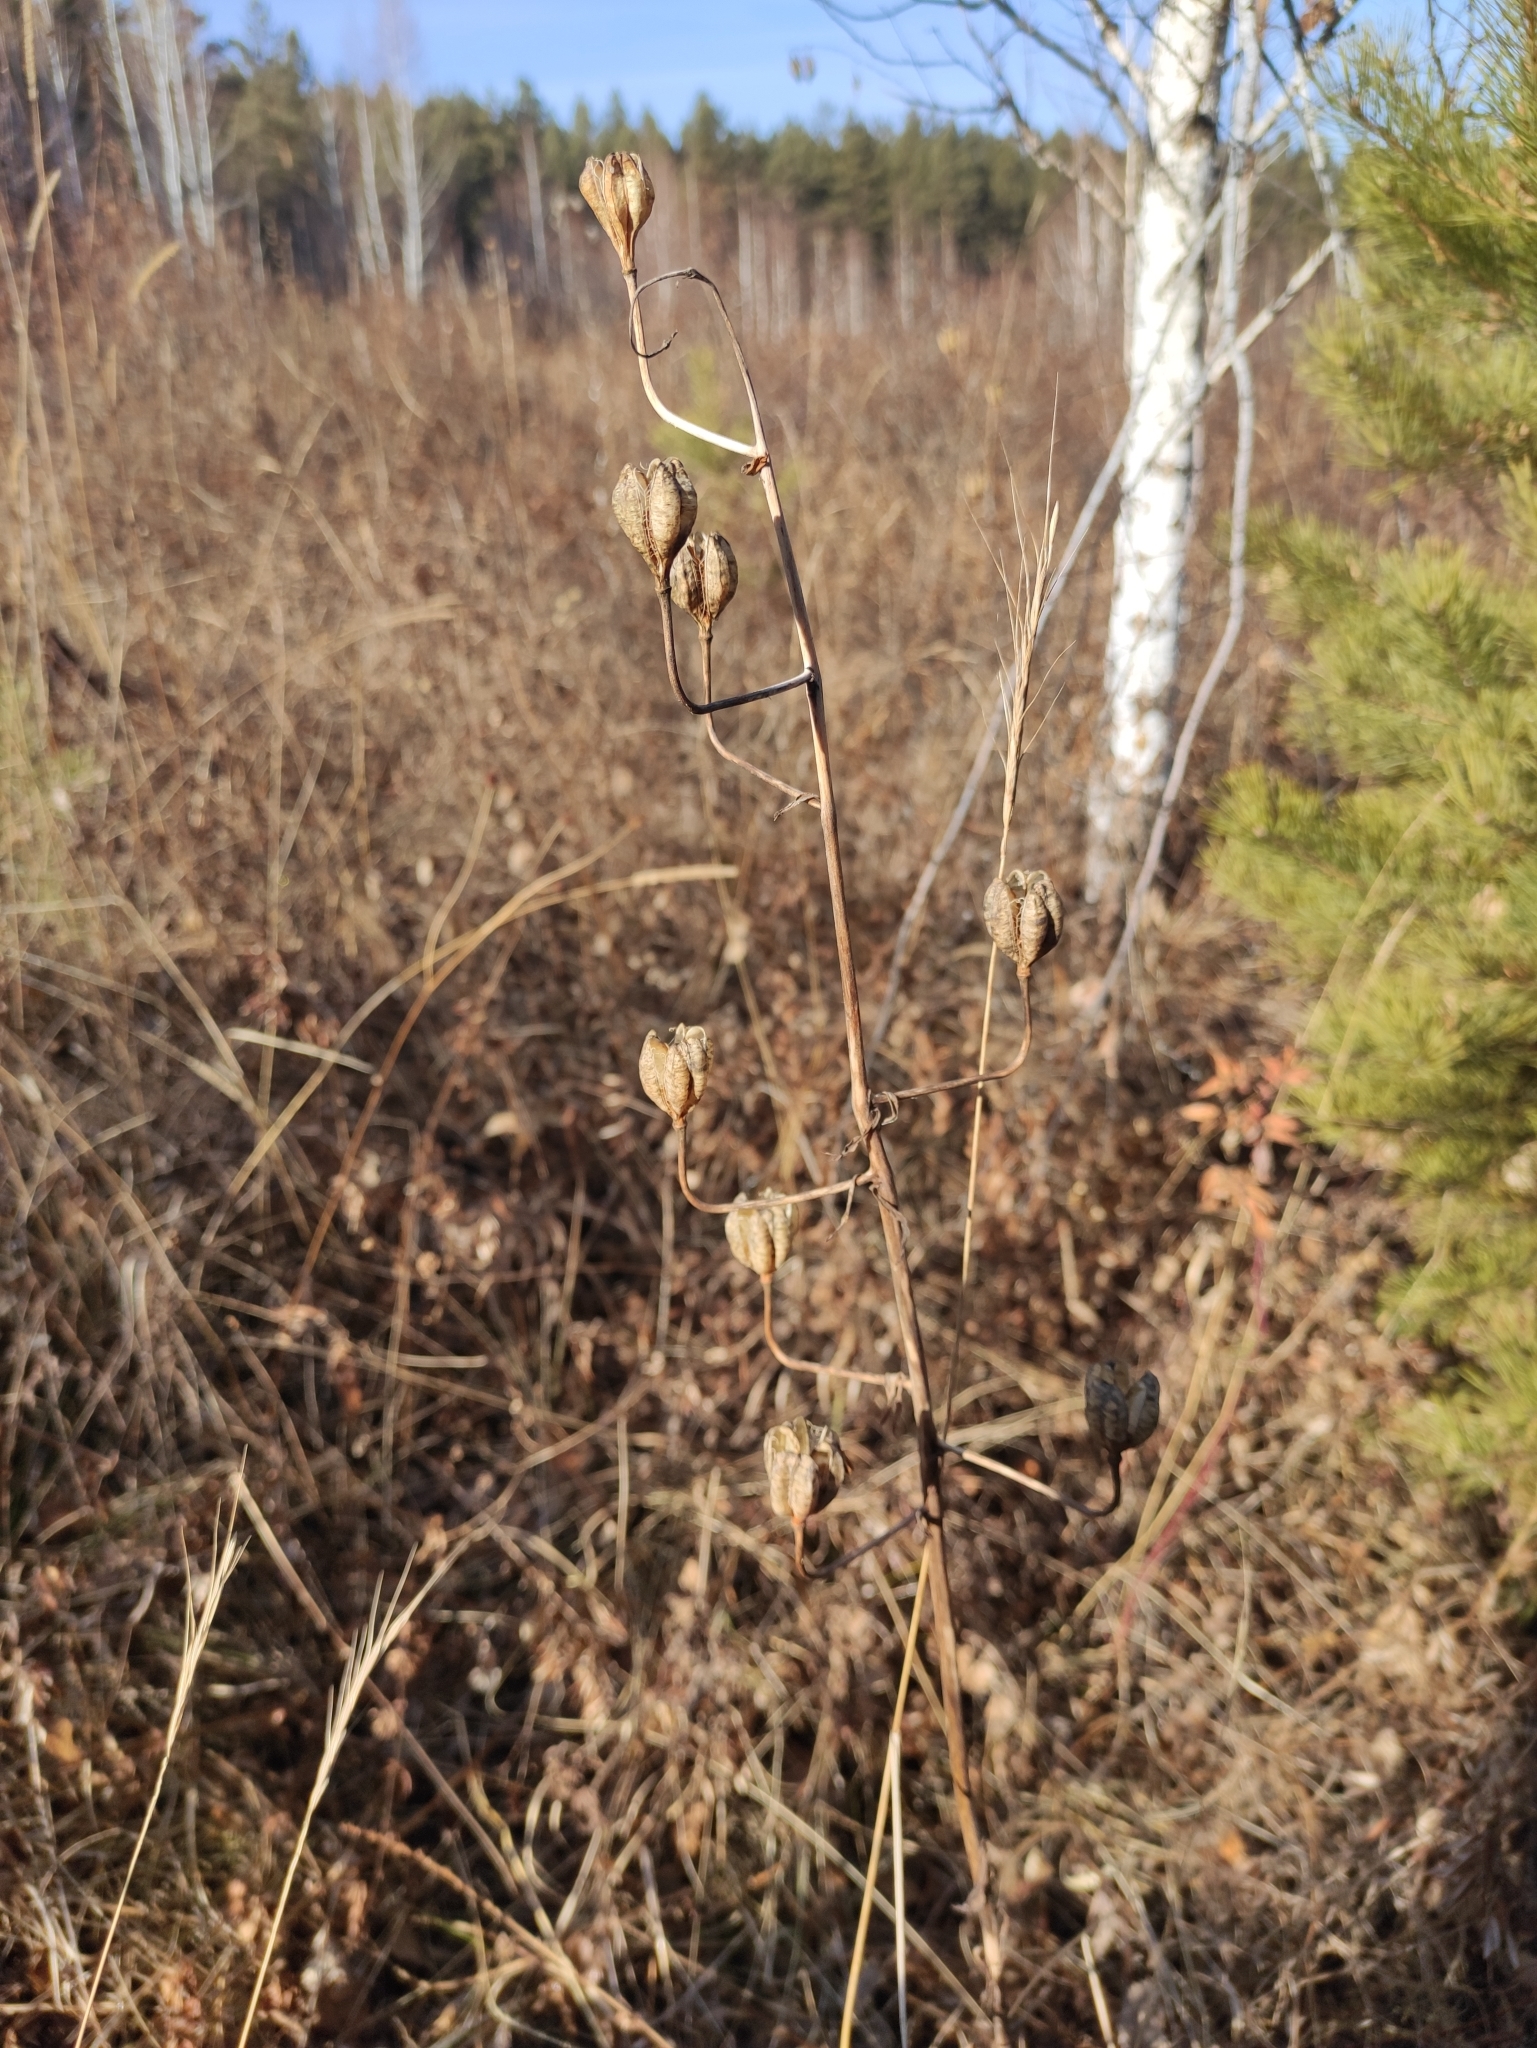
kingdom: Plantae
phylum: Tracheophyta
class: Liliopsida
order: Liliales
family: Liliaceae
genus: Lilium
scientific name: Lilium martagon
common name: Martagon lily
